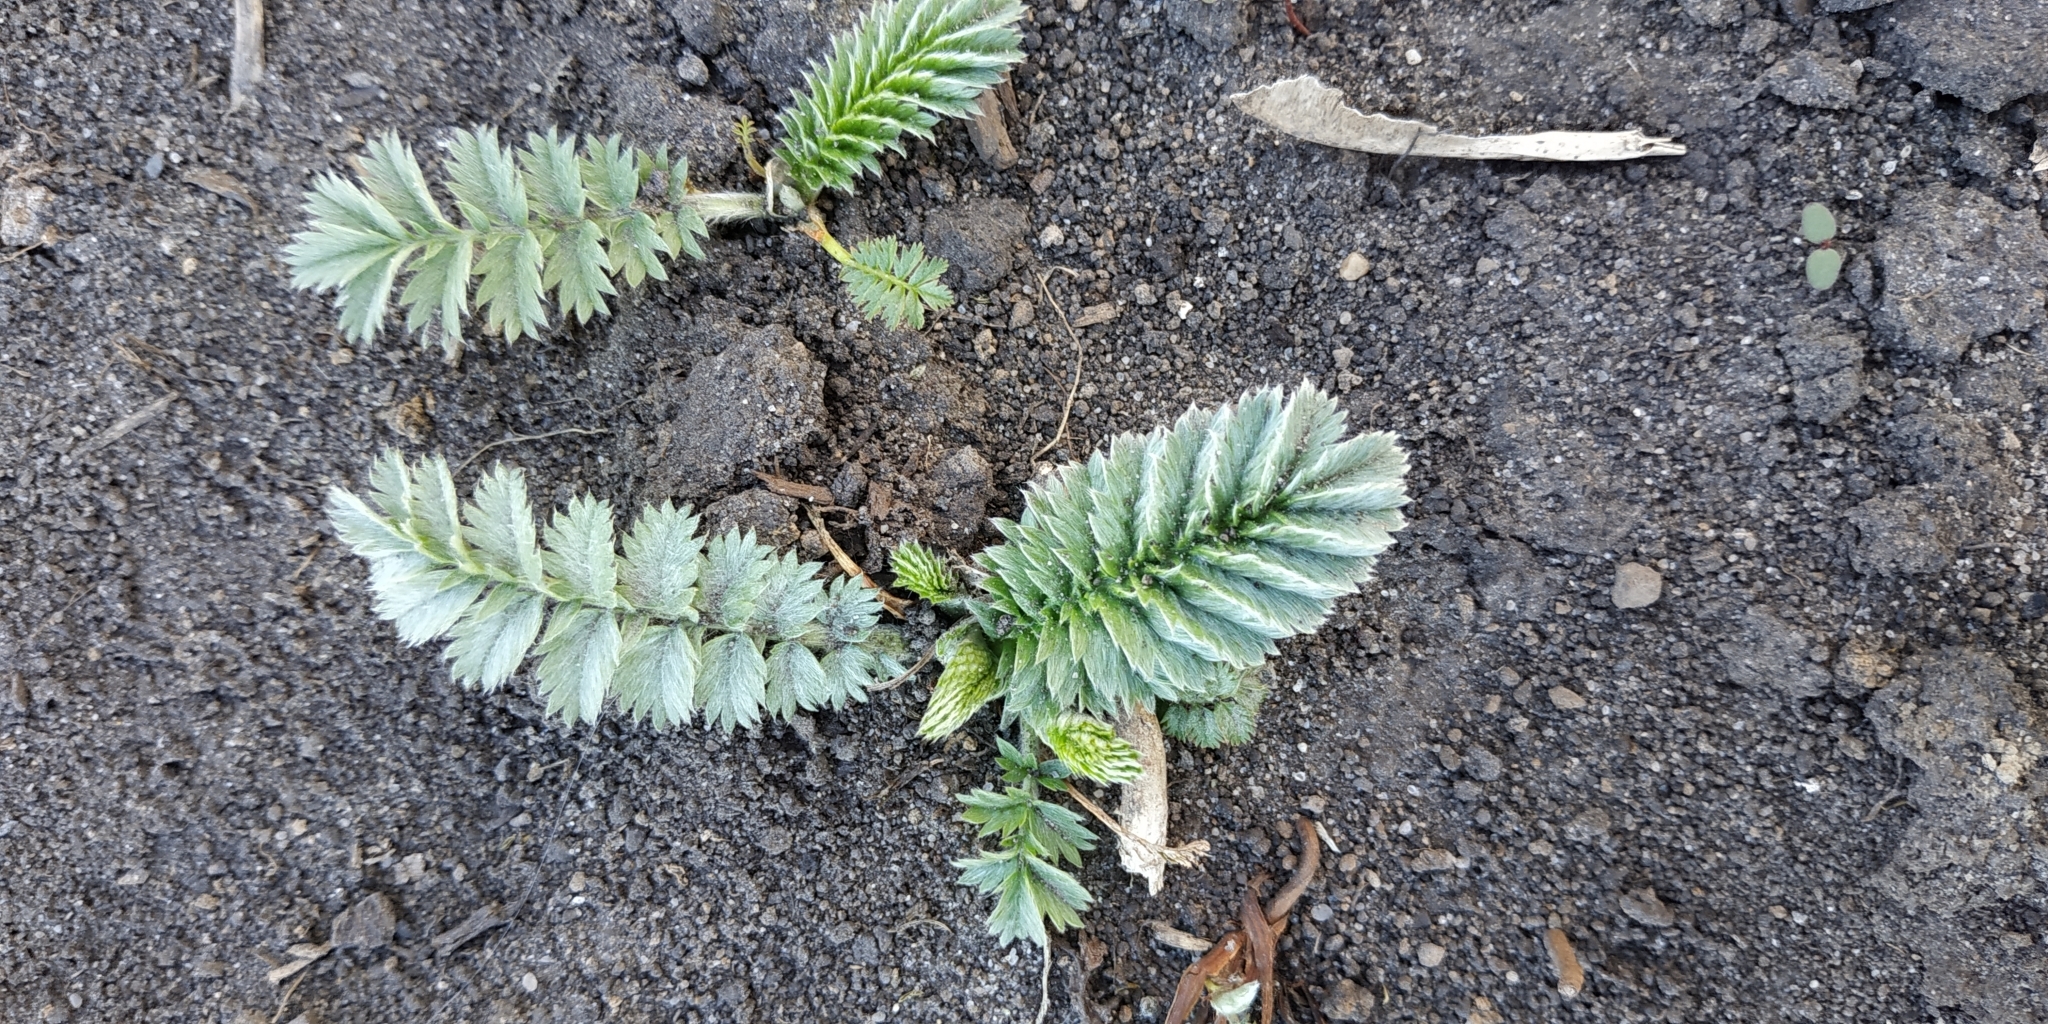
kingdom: Plantae
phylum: Tracheophyta
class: Magnoliopsida
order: Rosales
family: Rosaceae
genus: Argentina
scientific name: Argentina anserina
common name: Common silverweed
